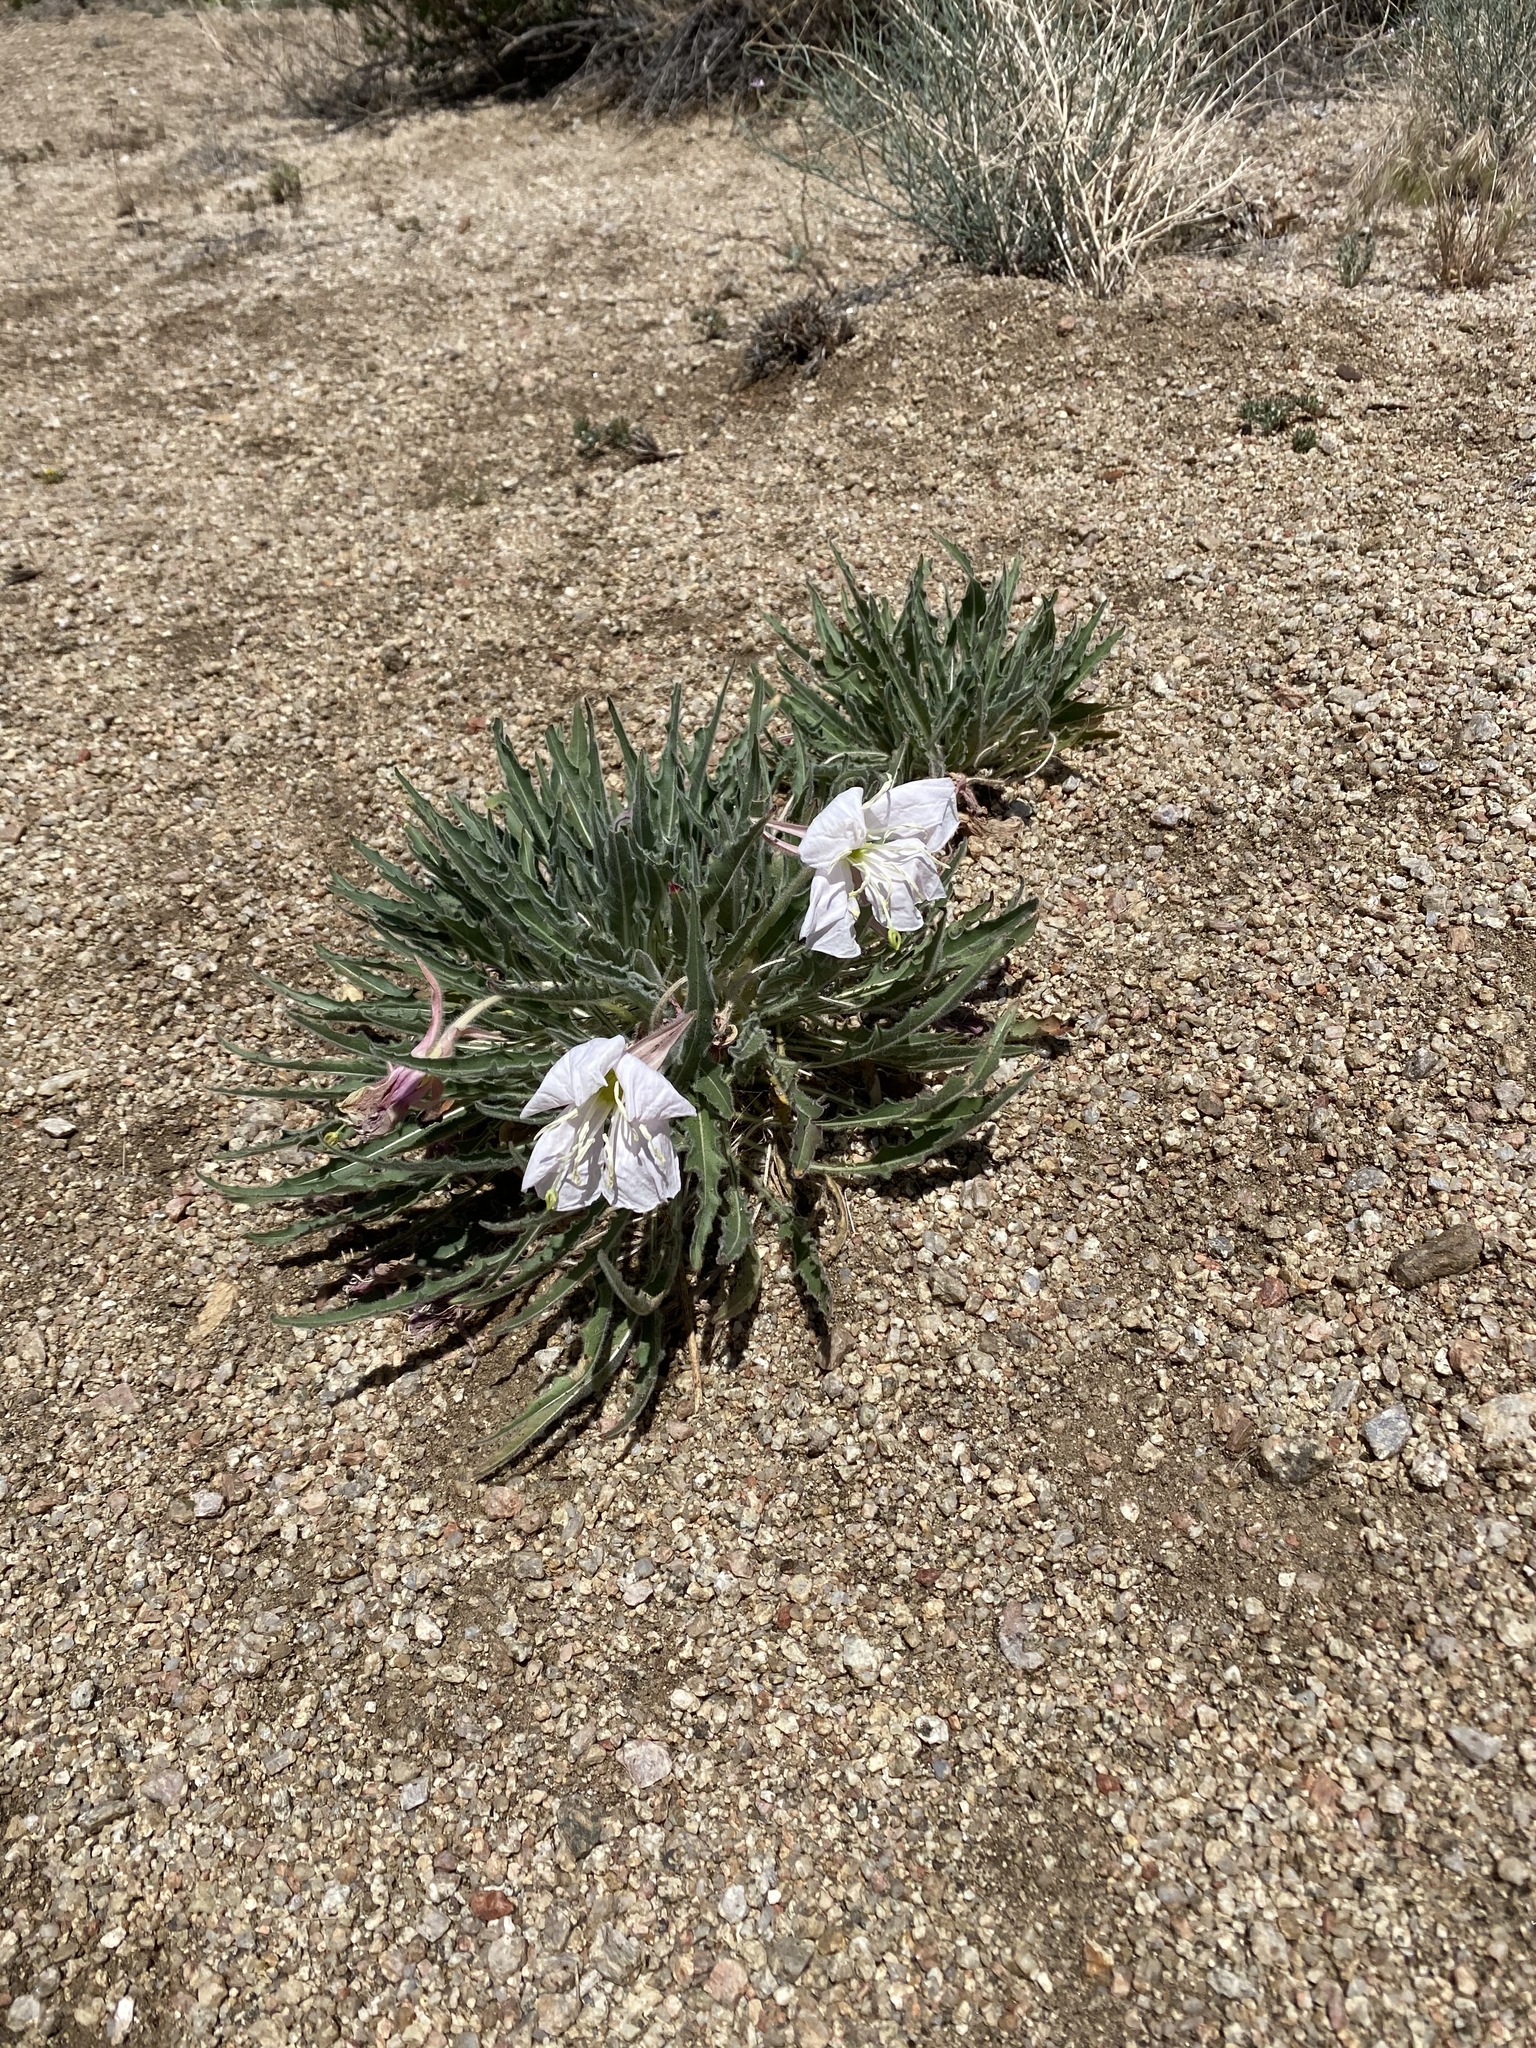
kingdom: Plantae
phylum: Tracheophyta
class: Magnoliopsida
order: Myrtales
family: Onagraceae
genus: Oenothera
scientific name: Oenothera cespitosa
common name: Tufted evening-primrose
